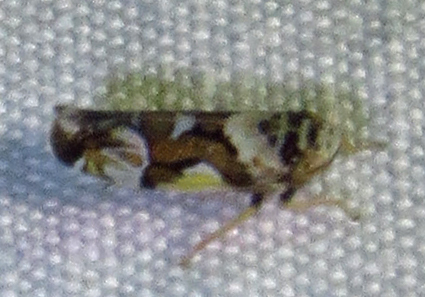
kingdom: Animalia
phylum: Arthropoda
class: Insecta
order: Hemiptera
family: Cicadellidae
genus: Sanctanus
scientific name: Sanctanus cruciatus
